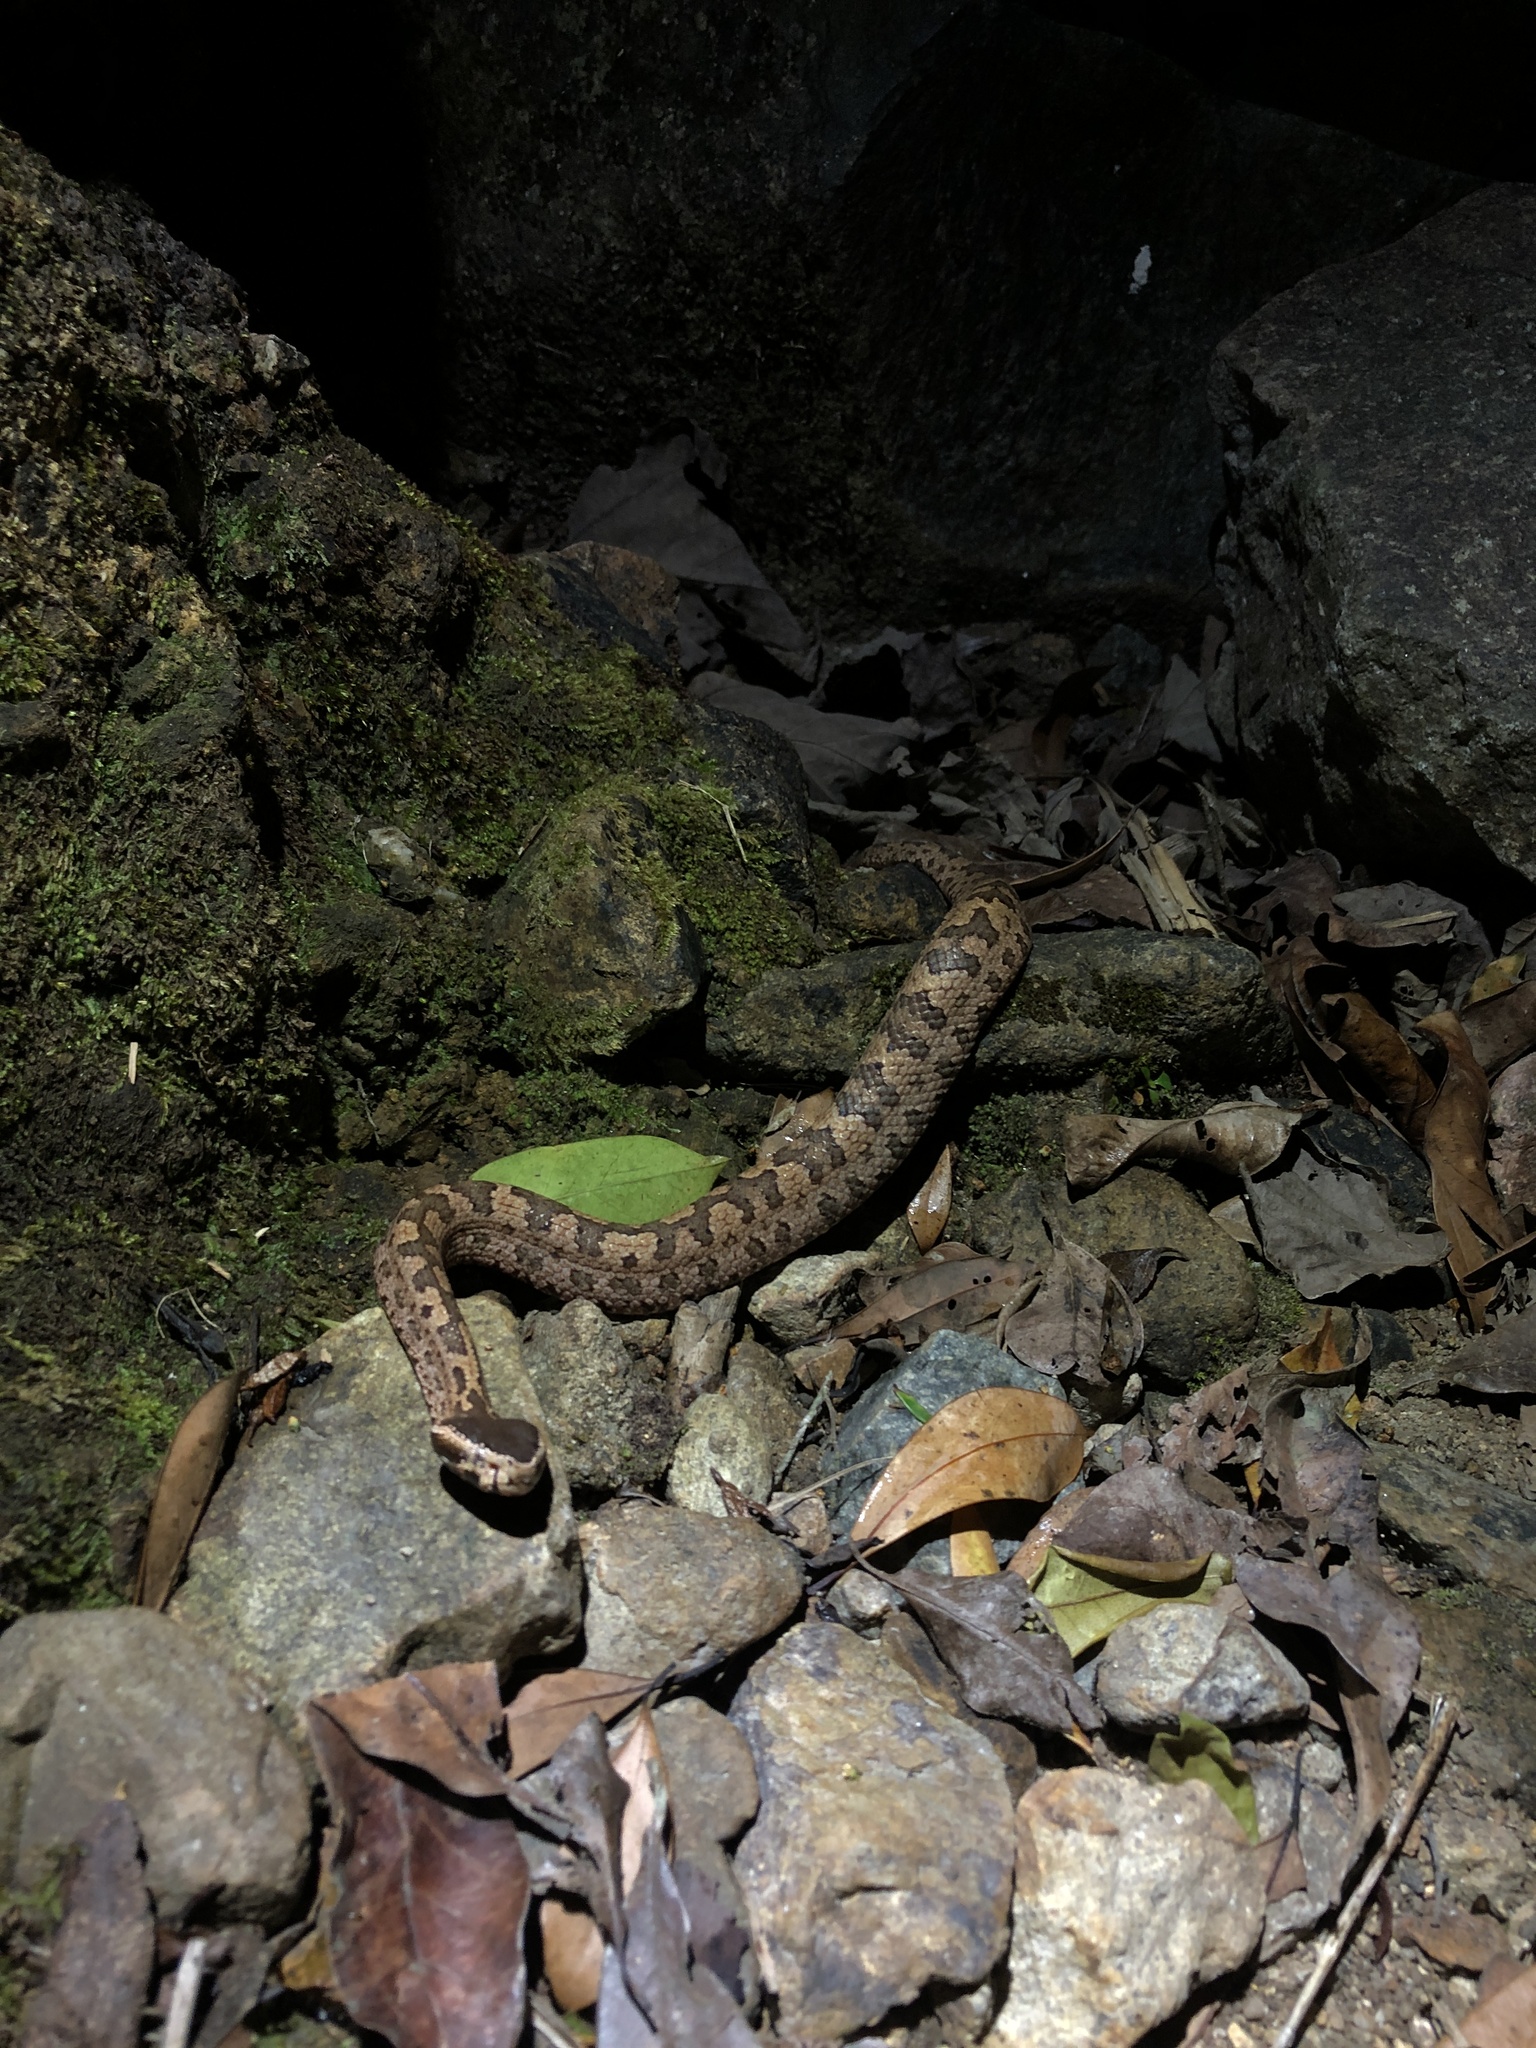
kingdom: Animalia
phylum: Chordata
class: Squamata
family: Viperidae
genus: Ovophis
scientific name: Ovophis tonkinensis
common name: Tonkin pitviper
